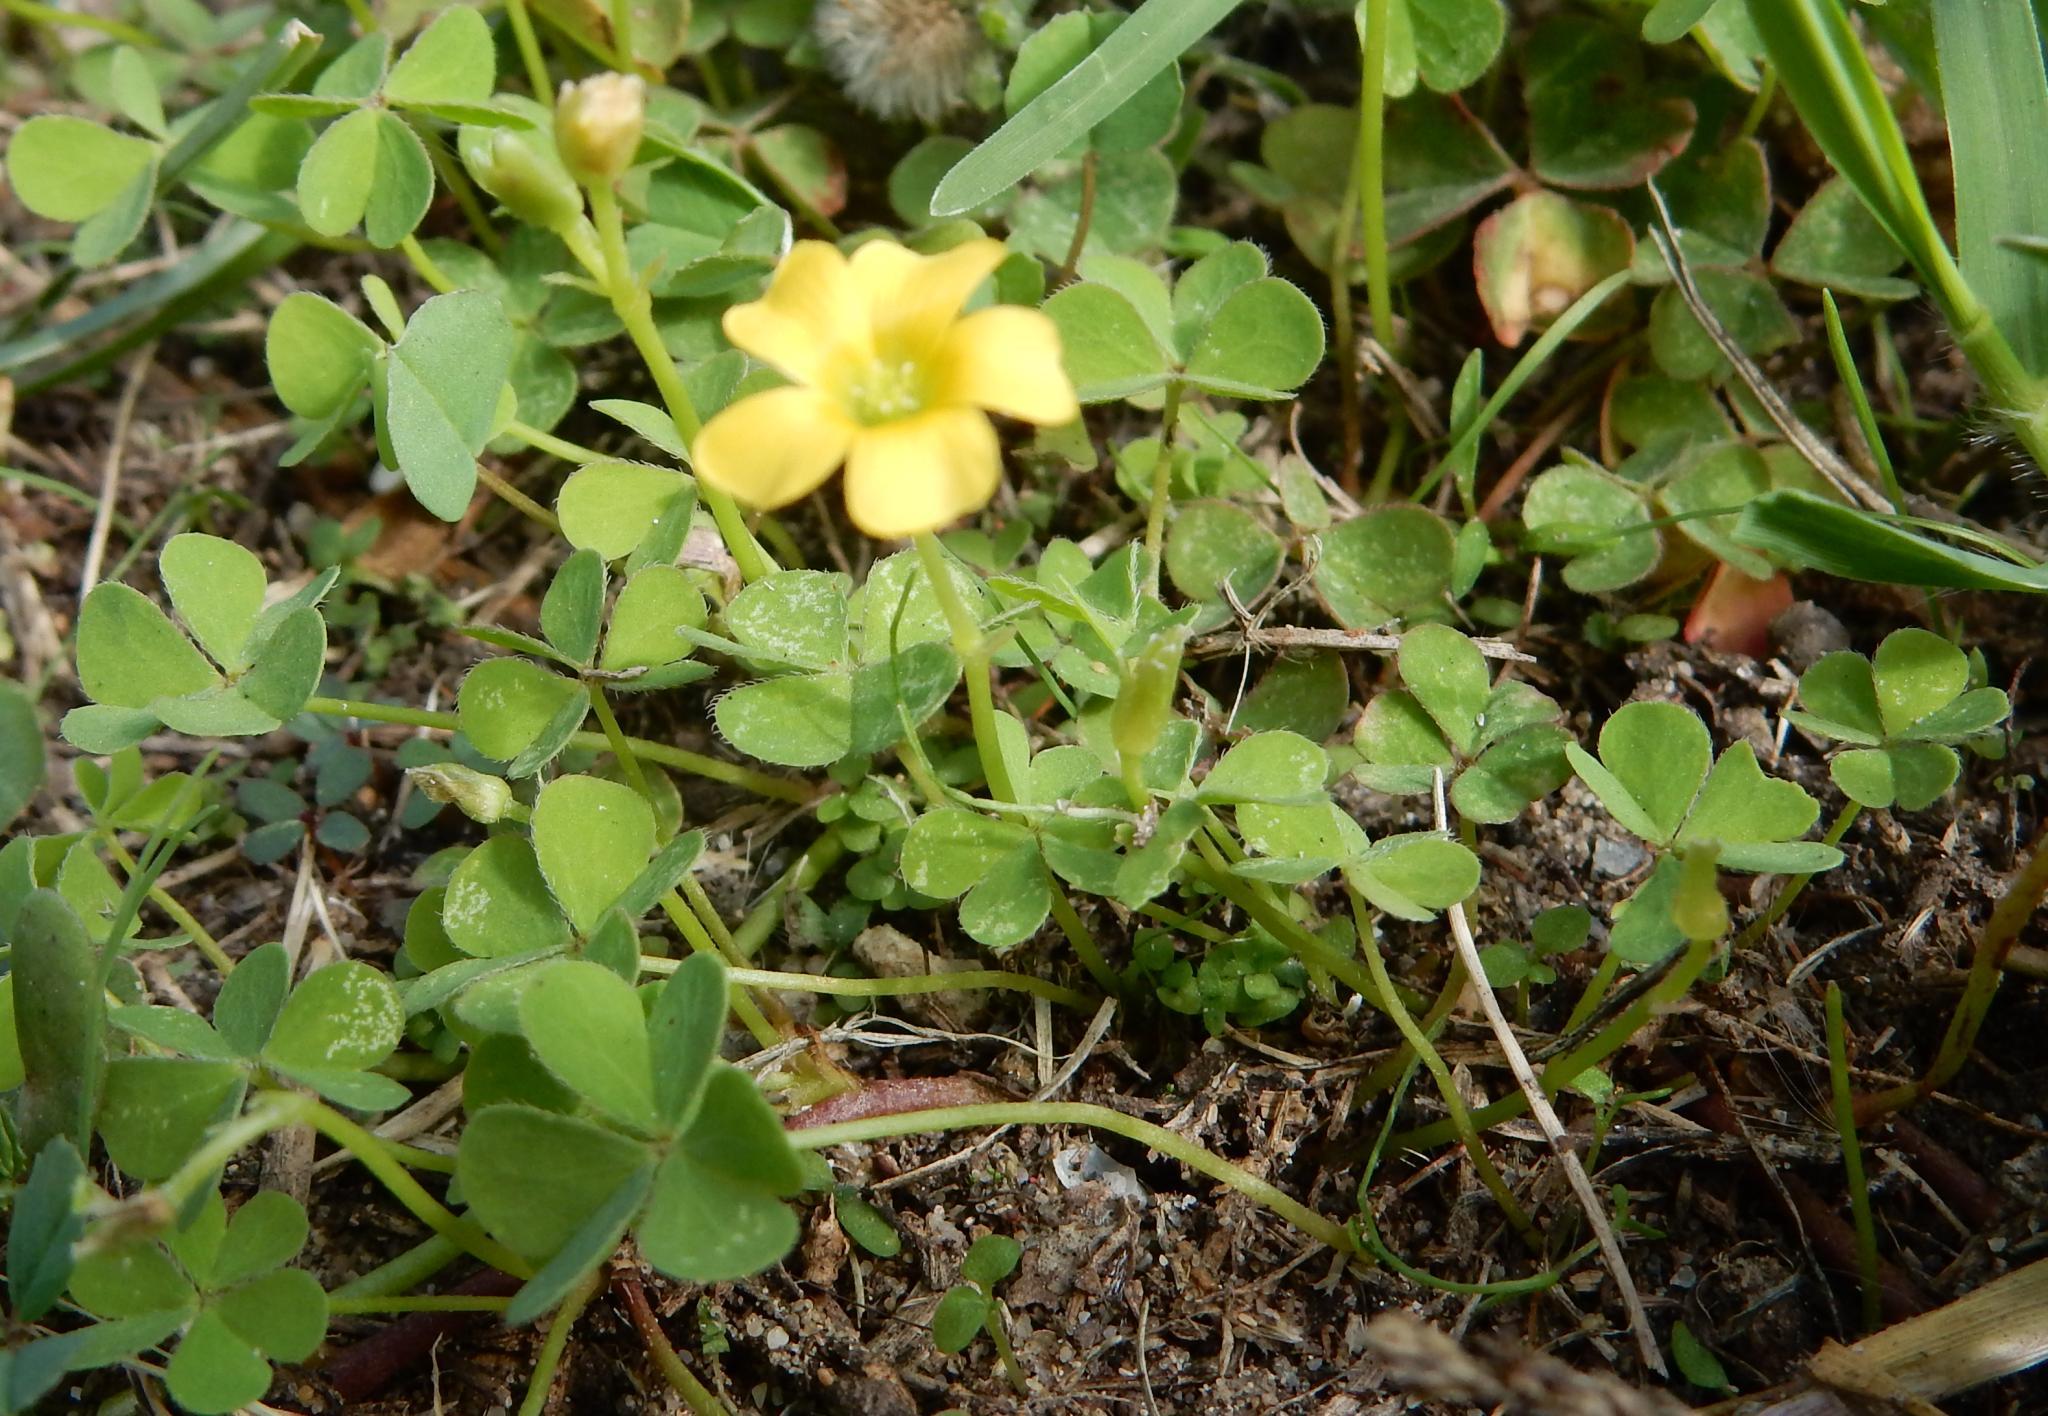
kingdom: Plantae
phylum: Tracheophyta
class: Magnoliopsida
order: Oxalidales
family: Oxalidaceae
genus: Oxalis
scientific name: Oxalis corniculata
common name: Procumbent yellow-sorrel
